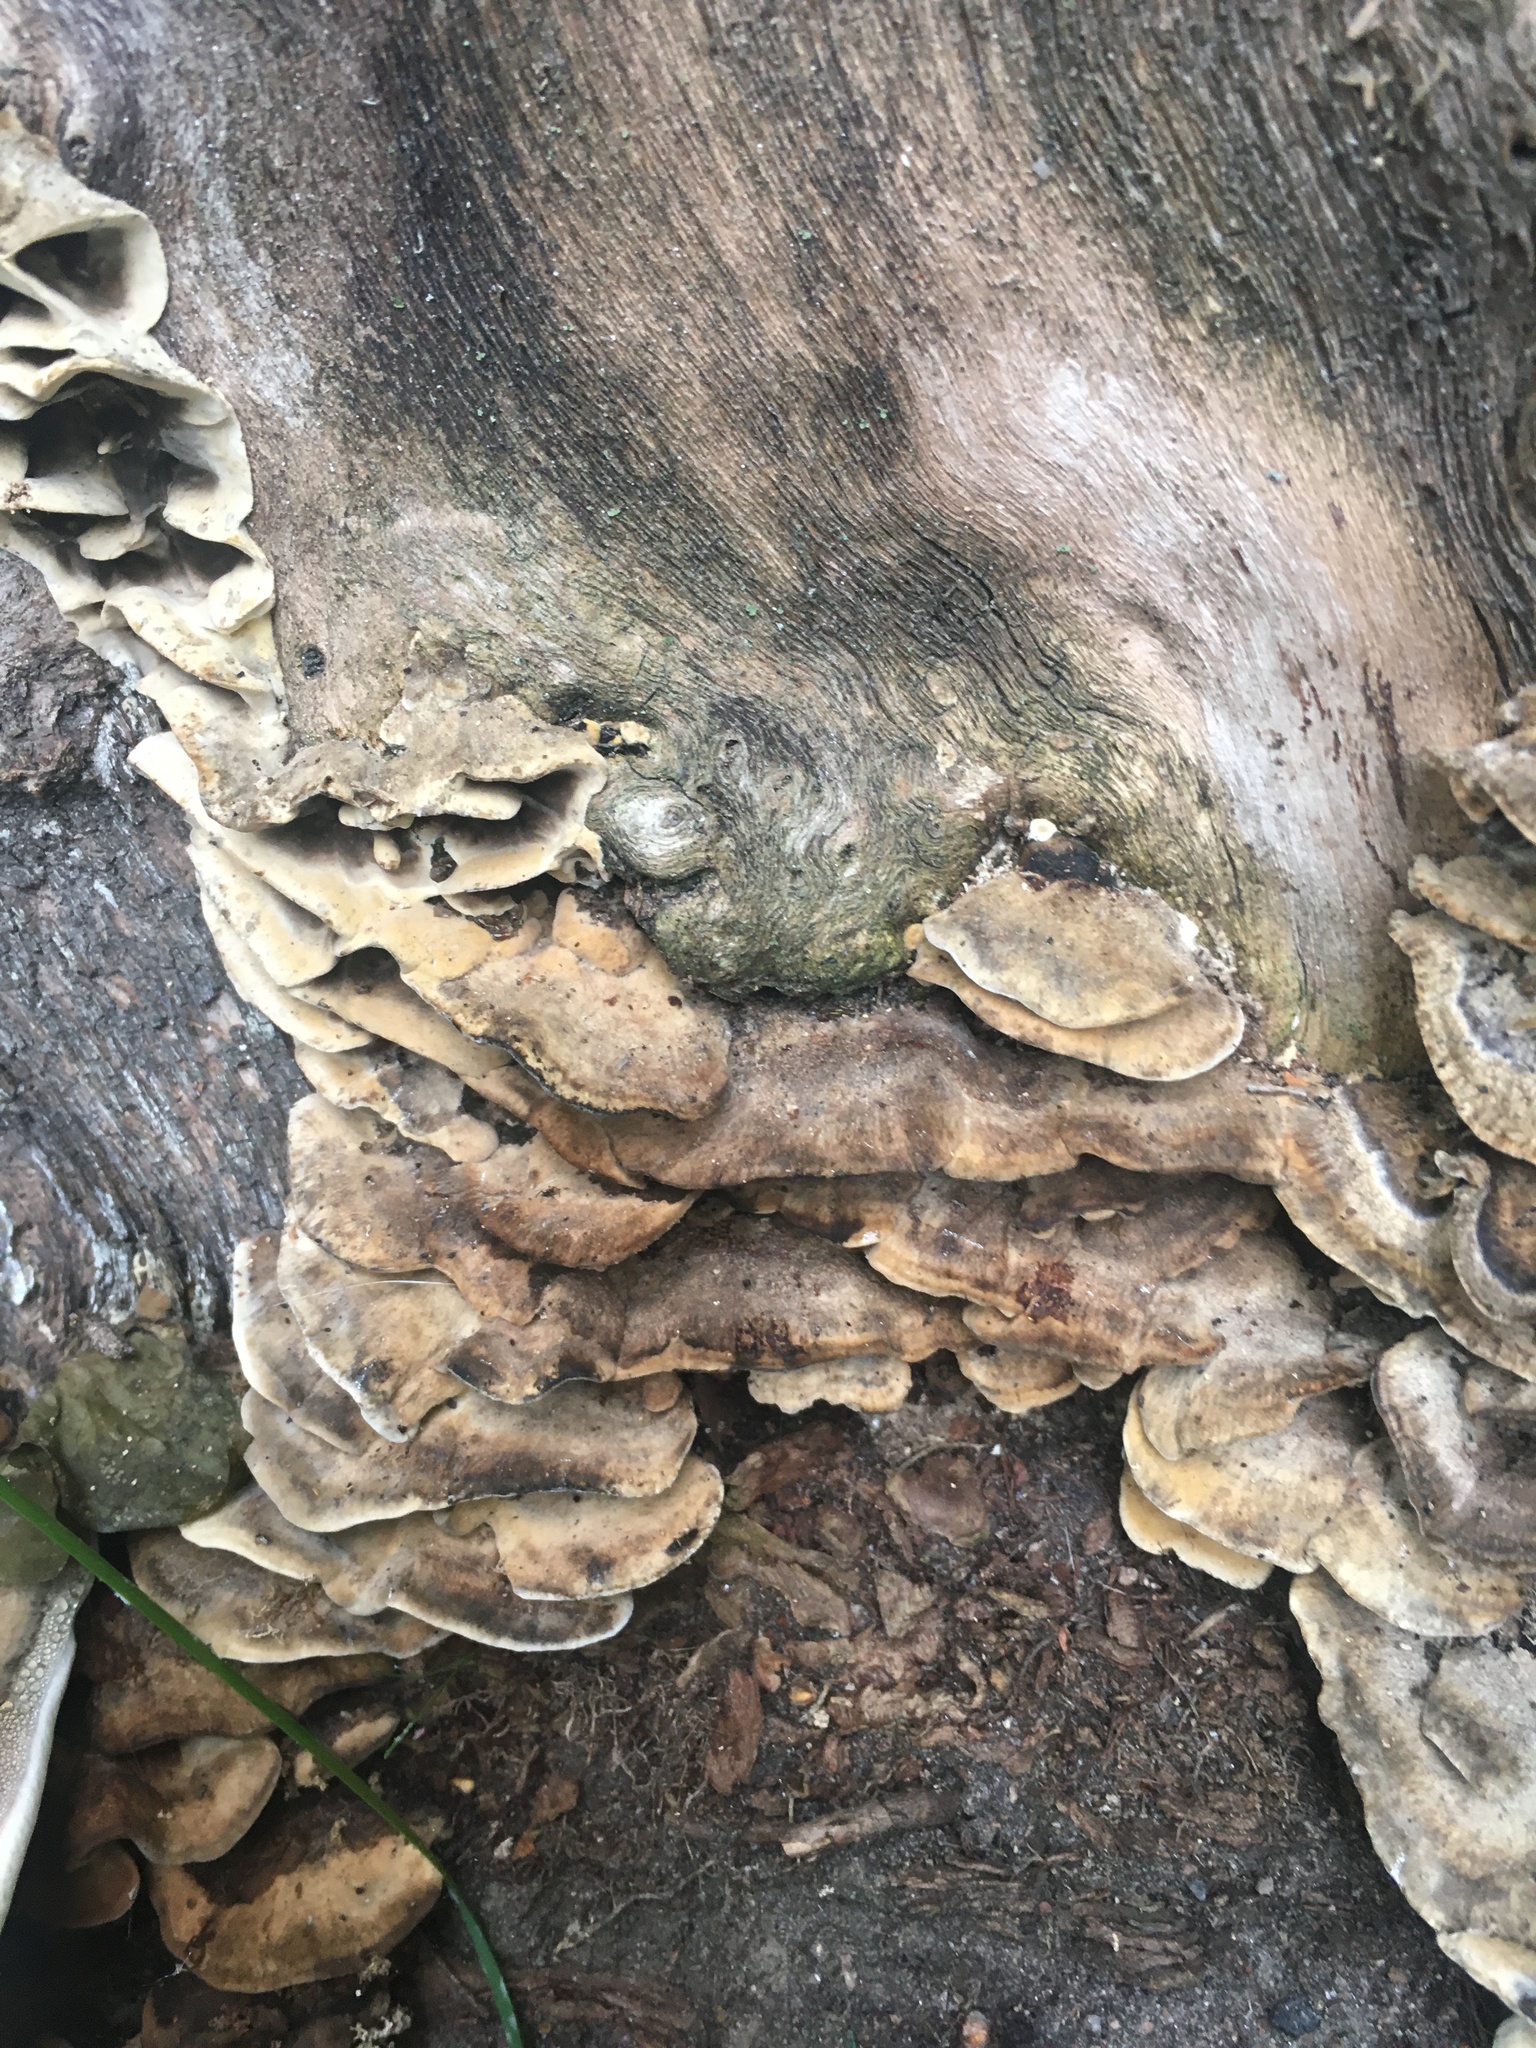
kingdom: Fungi
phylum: Basidiomycota
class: Agaricomycetes
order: Polyporales
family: Phanerochaetaceae
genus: Bjerkandera
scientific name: Bjerkandera adusta
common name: Smoky bracket
